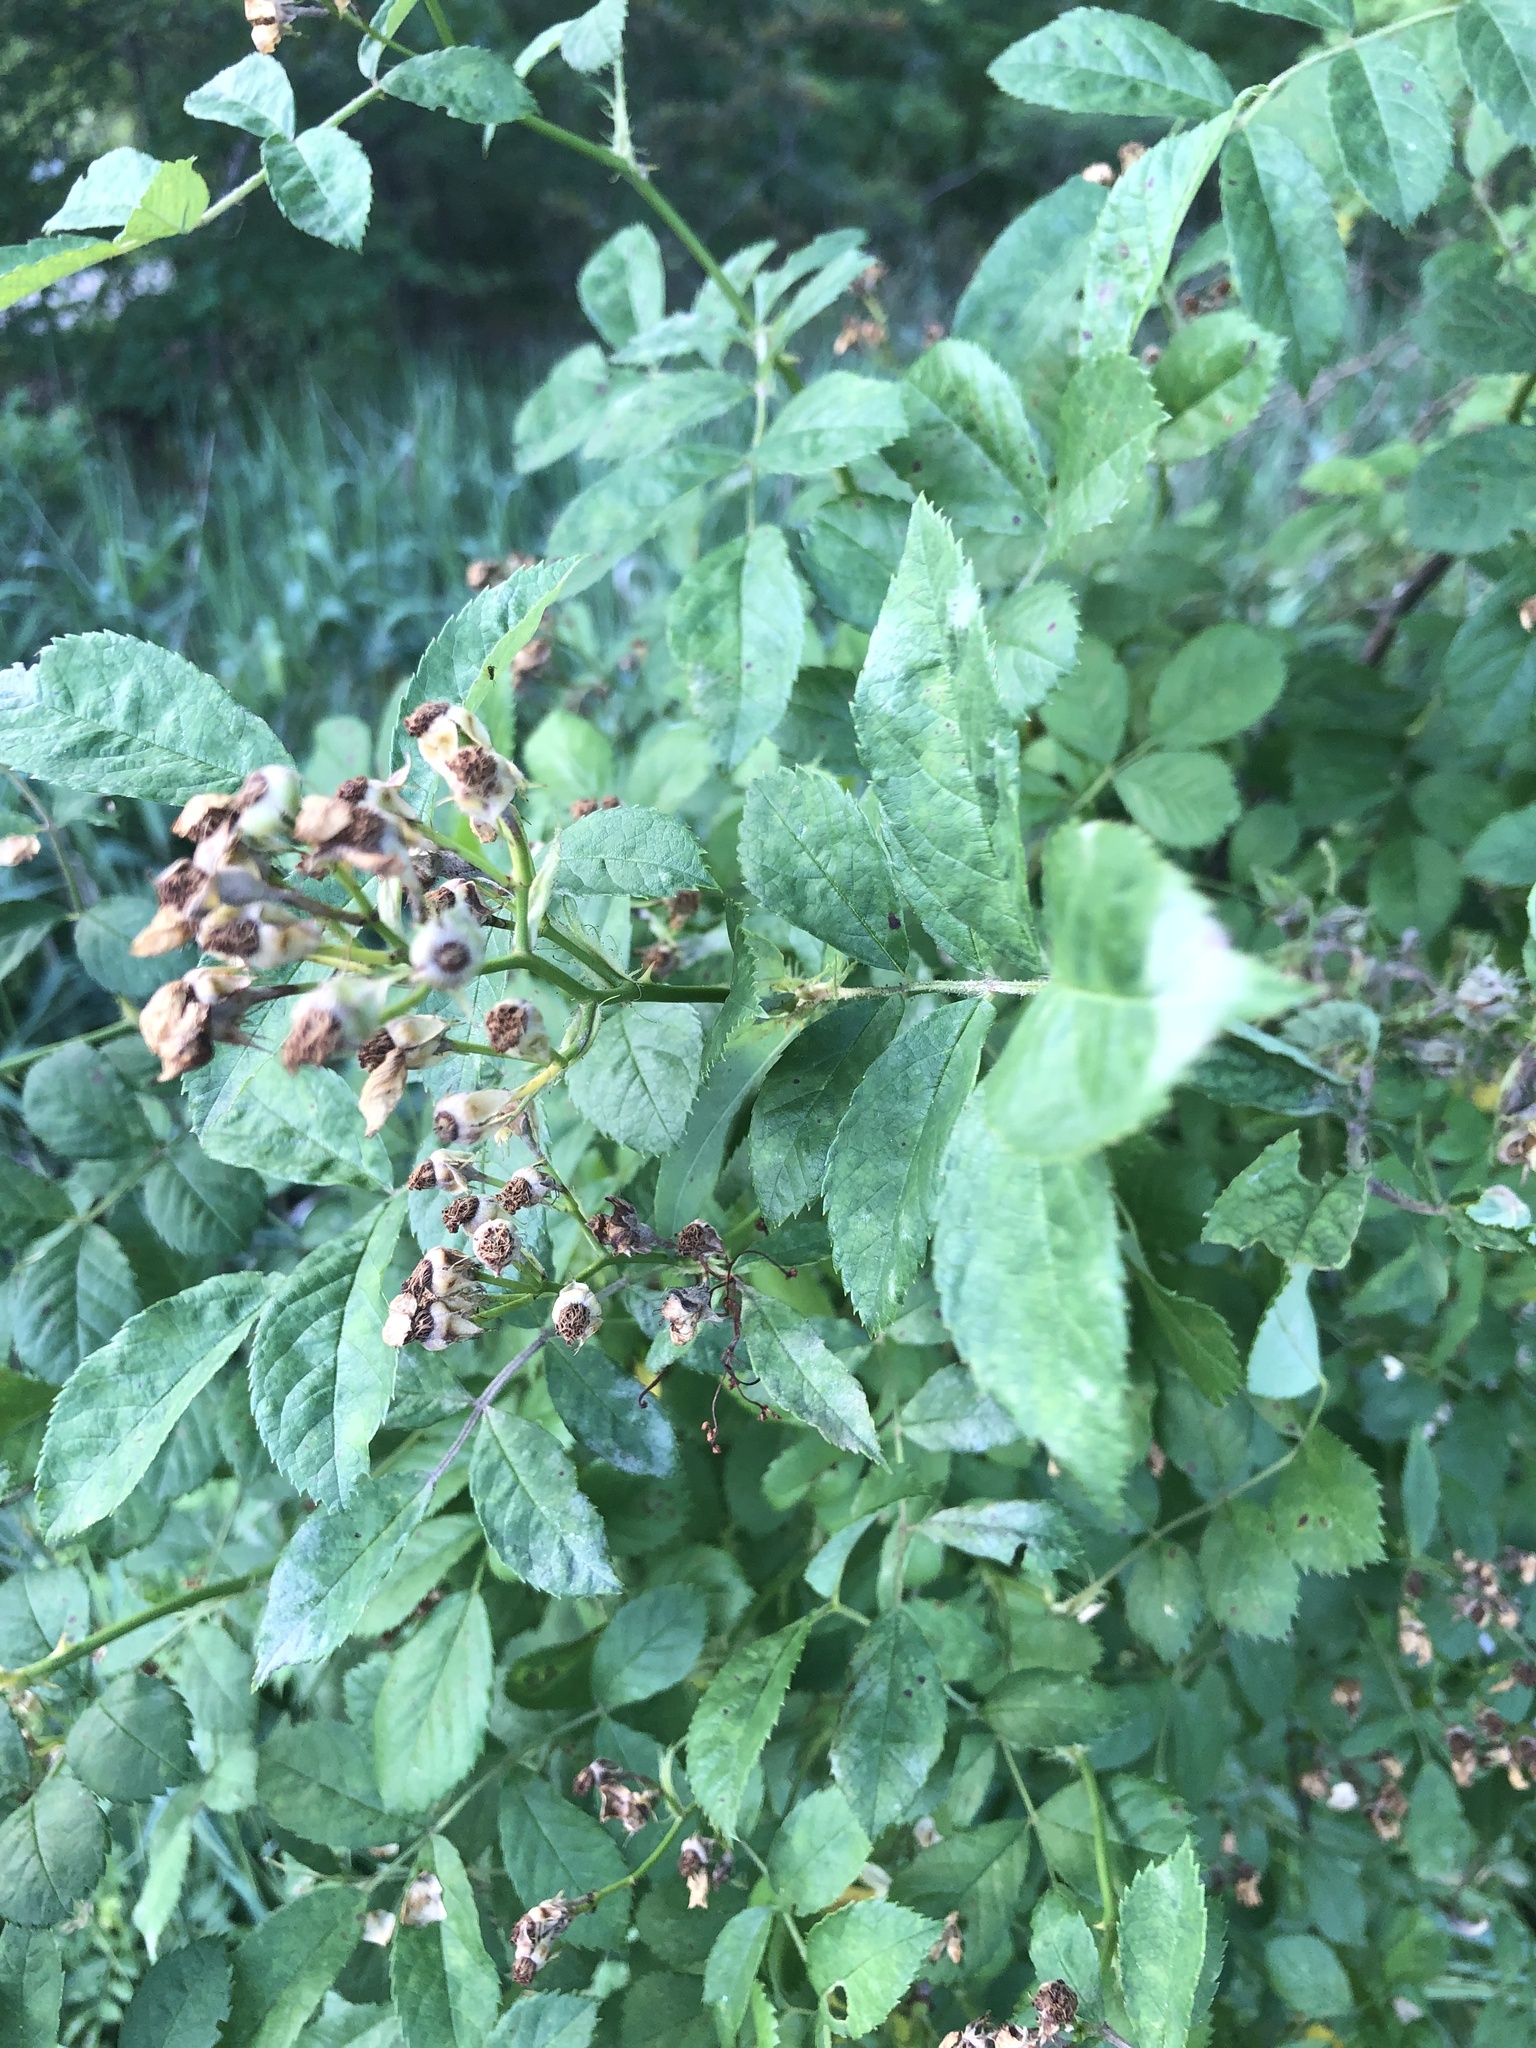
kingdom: Plantae
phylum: Tracheophyta
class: Magnoliopsida
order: Rosales
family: Rosaceae
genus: Rosa
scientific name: Rosa multiflora
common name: Multiflora rose
